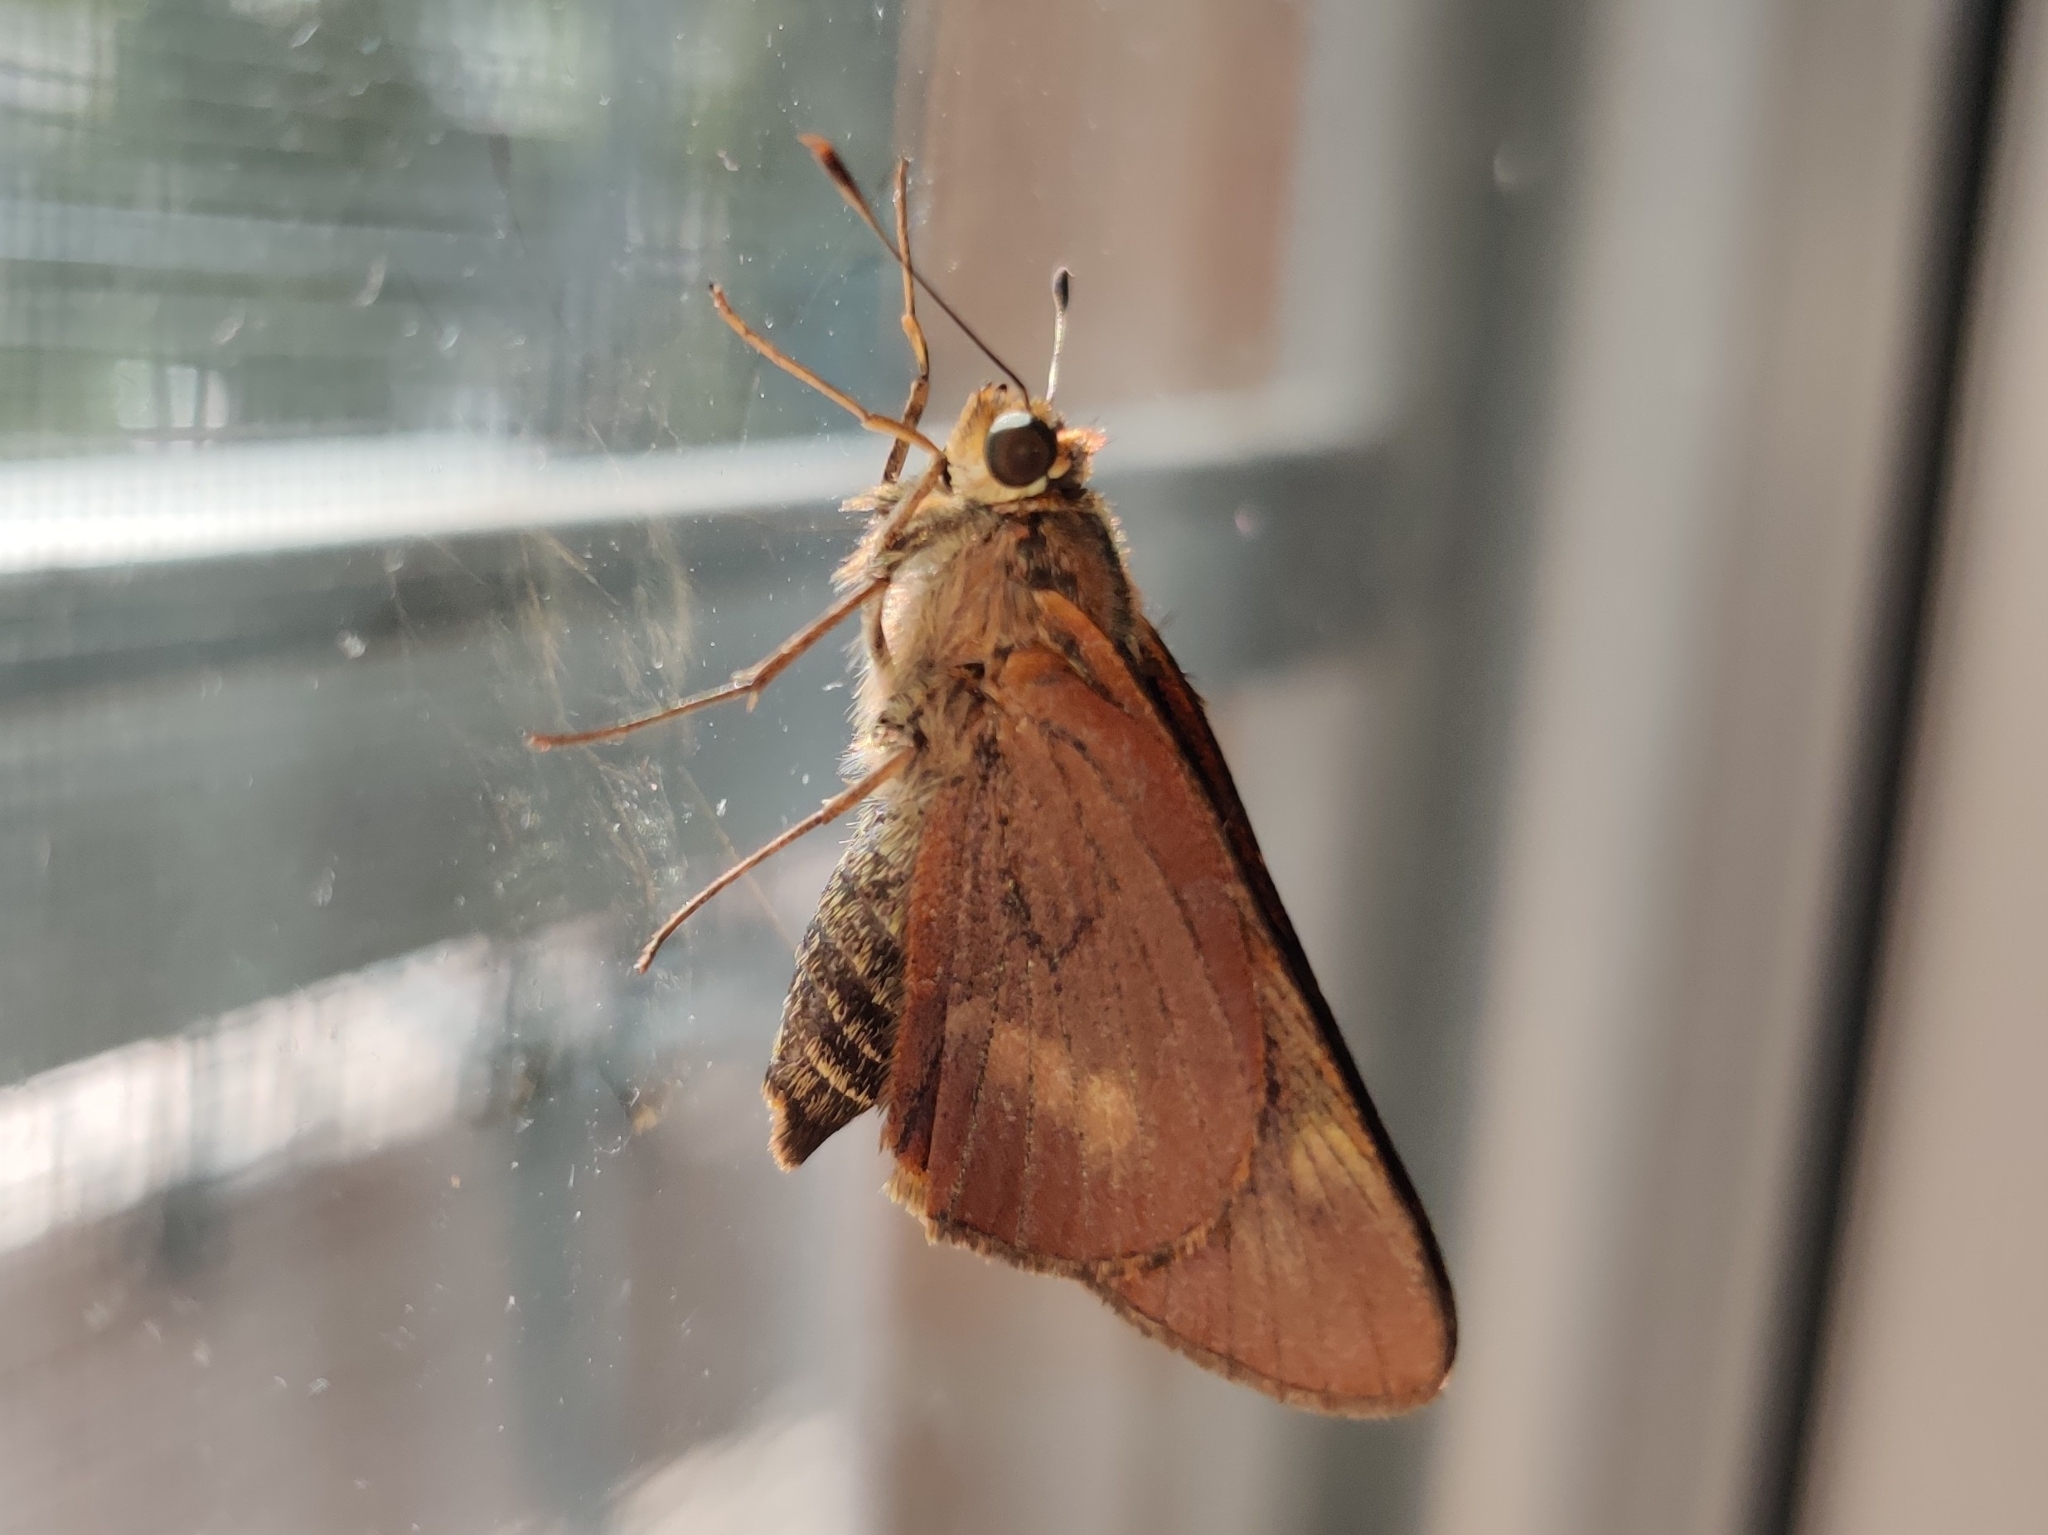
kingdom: Animalia
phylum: Arthropoda
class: Insecta
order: Lepidoptera
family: Hesperiidae
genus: Cephrenes
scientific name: Cephrenes augiades
